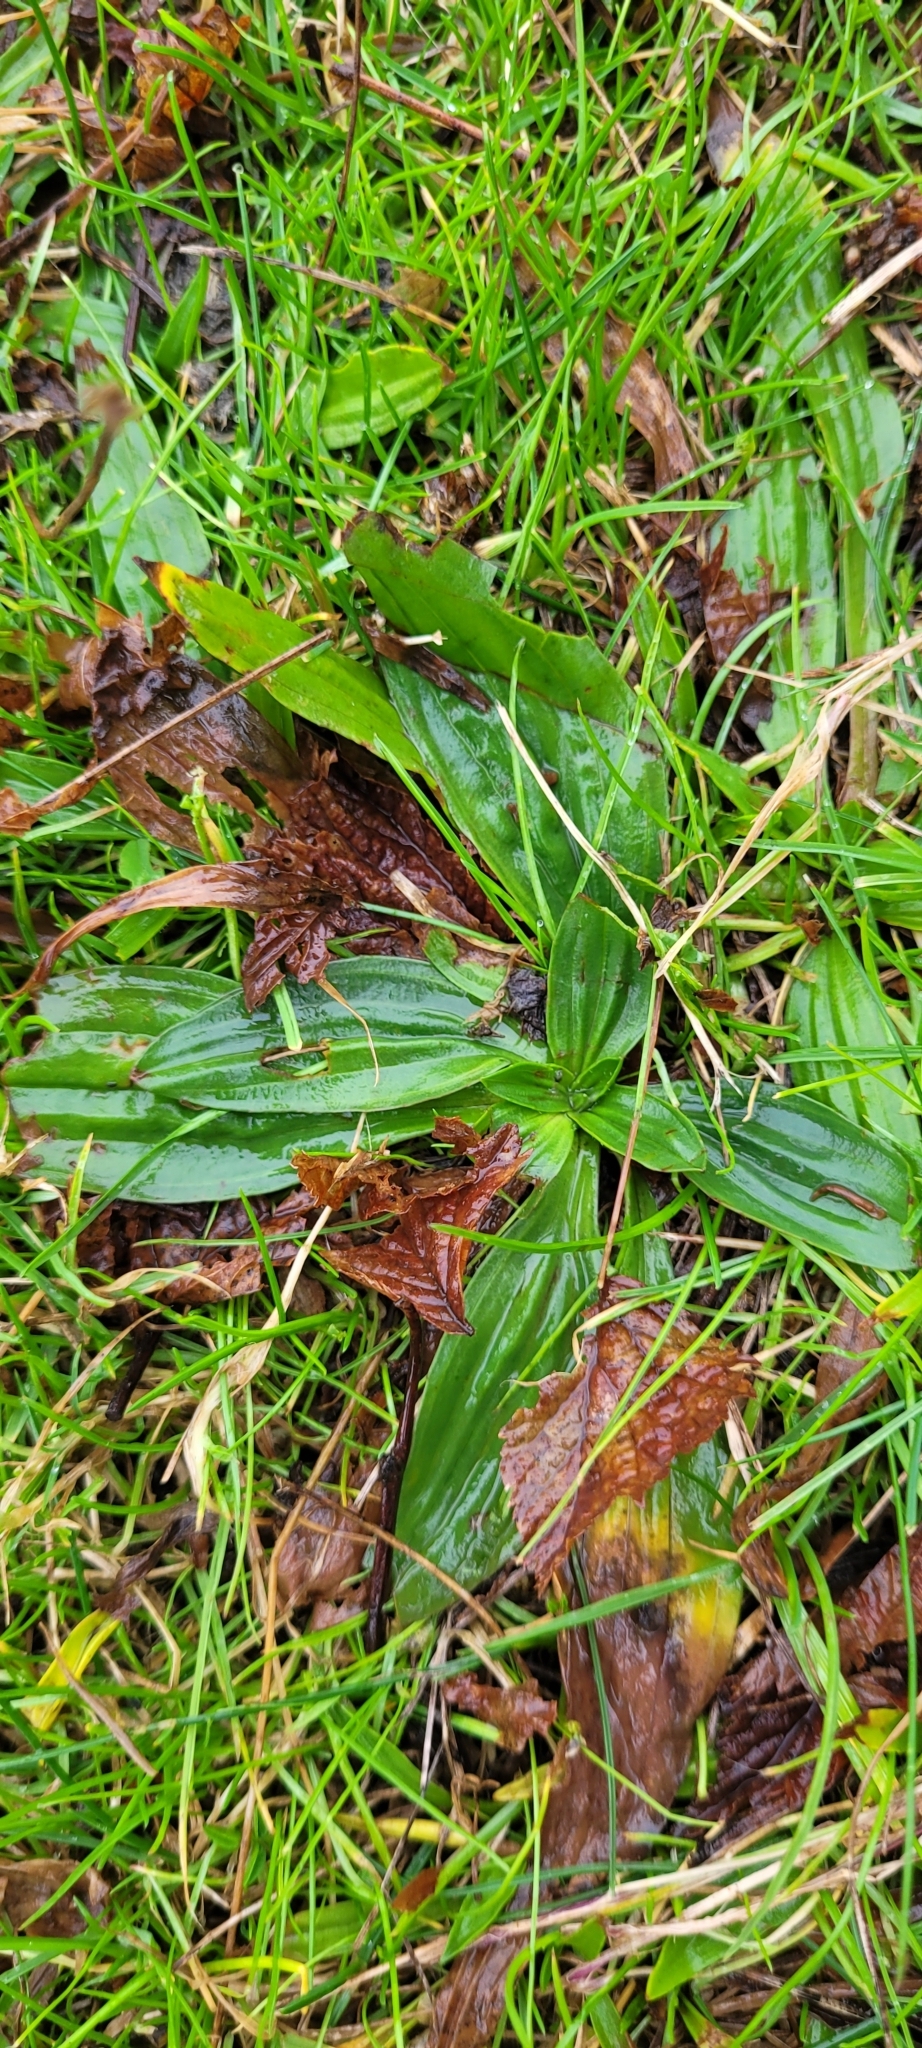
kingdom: Plantae
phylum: Tracheophyta
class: Magnoliopsida
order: Lamiales
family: Plantaginaceae
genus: Plantago
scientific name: Plantago lanceolata
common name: Ribwort plantain
